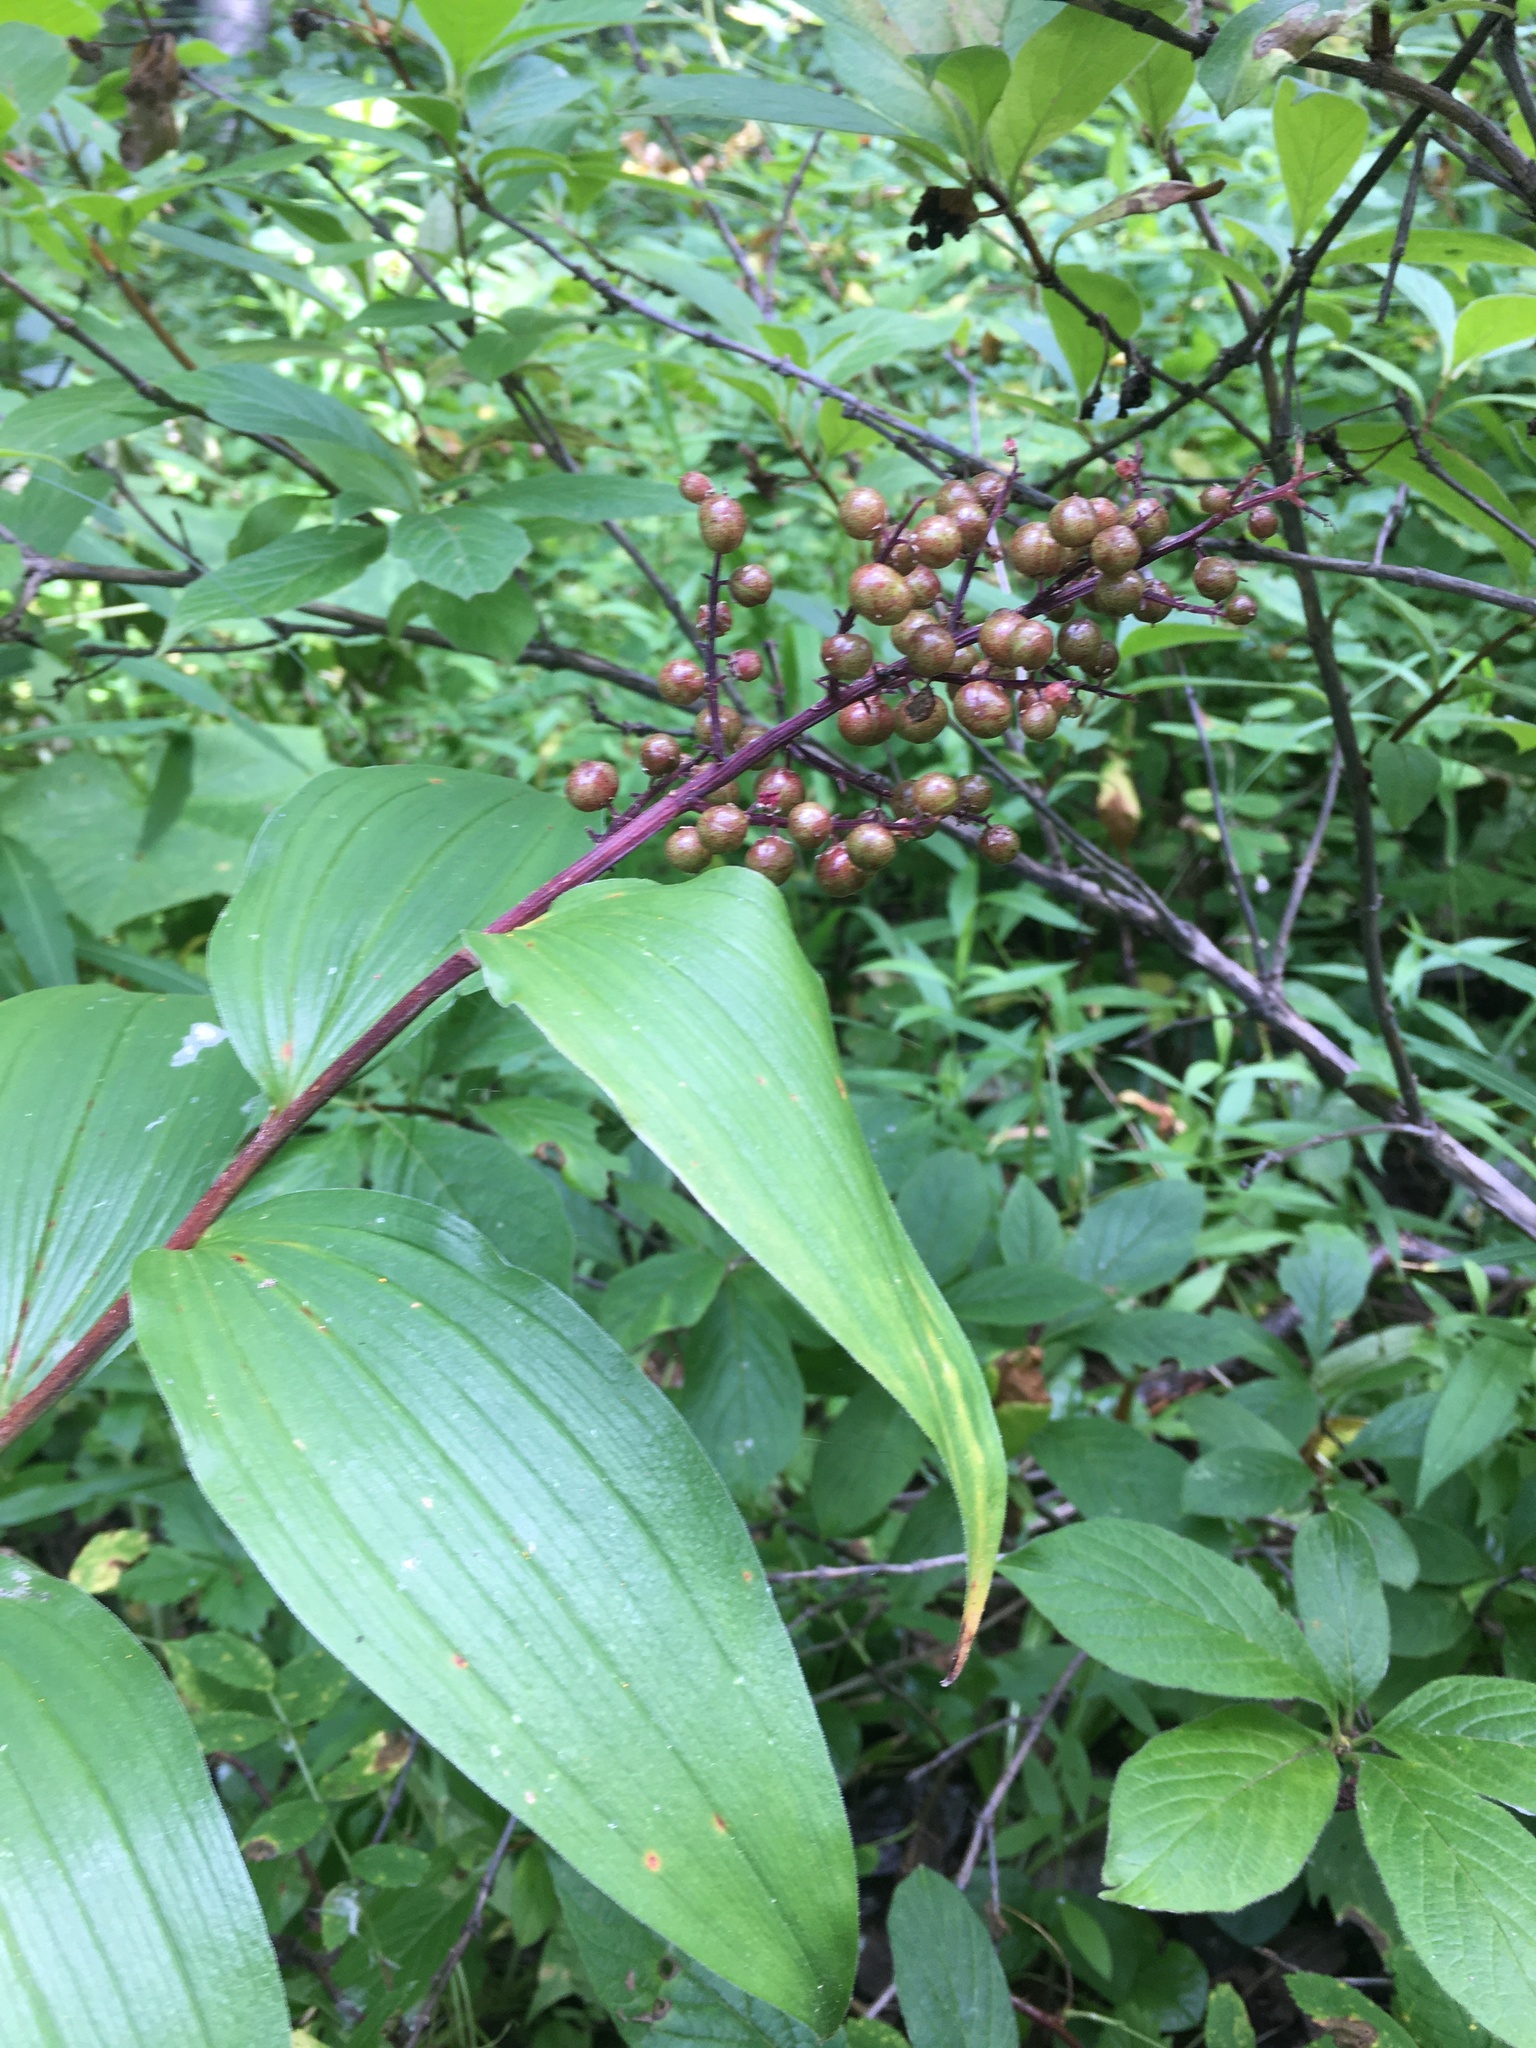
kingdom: Plantae
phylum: Tracheophyta
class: Liliopsida
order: Asparagales
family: Asparagaceae
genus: Maianthemum
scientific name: Maianthemum racemosum
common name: False spikenard
